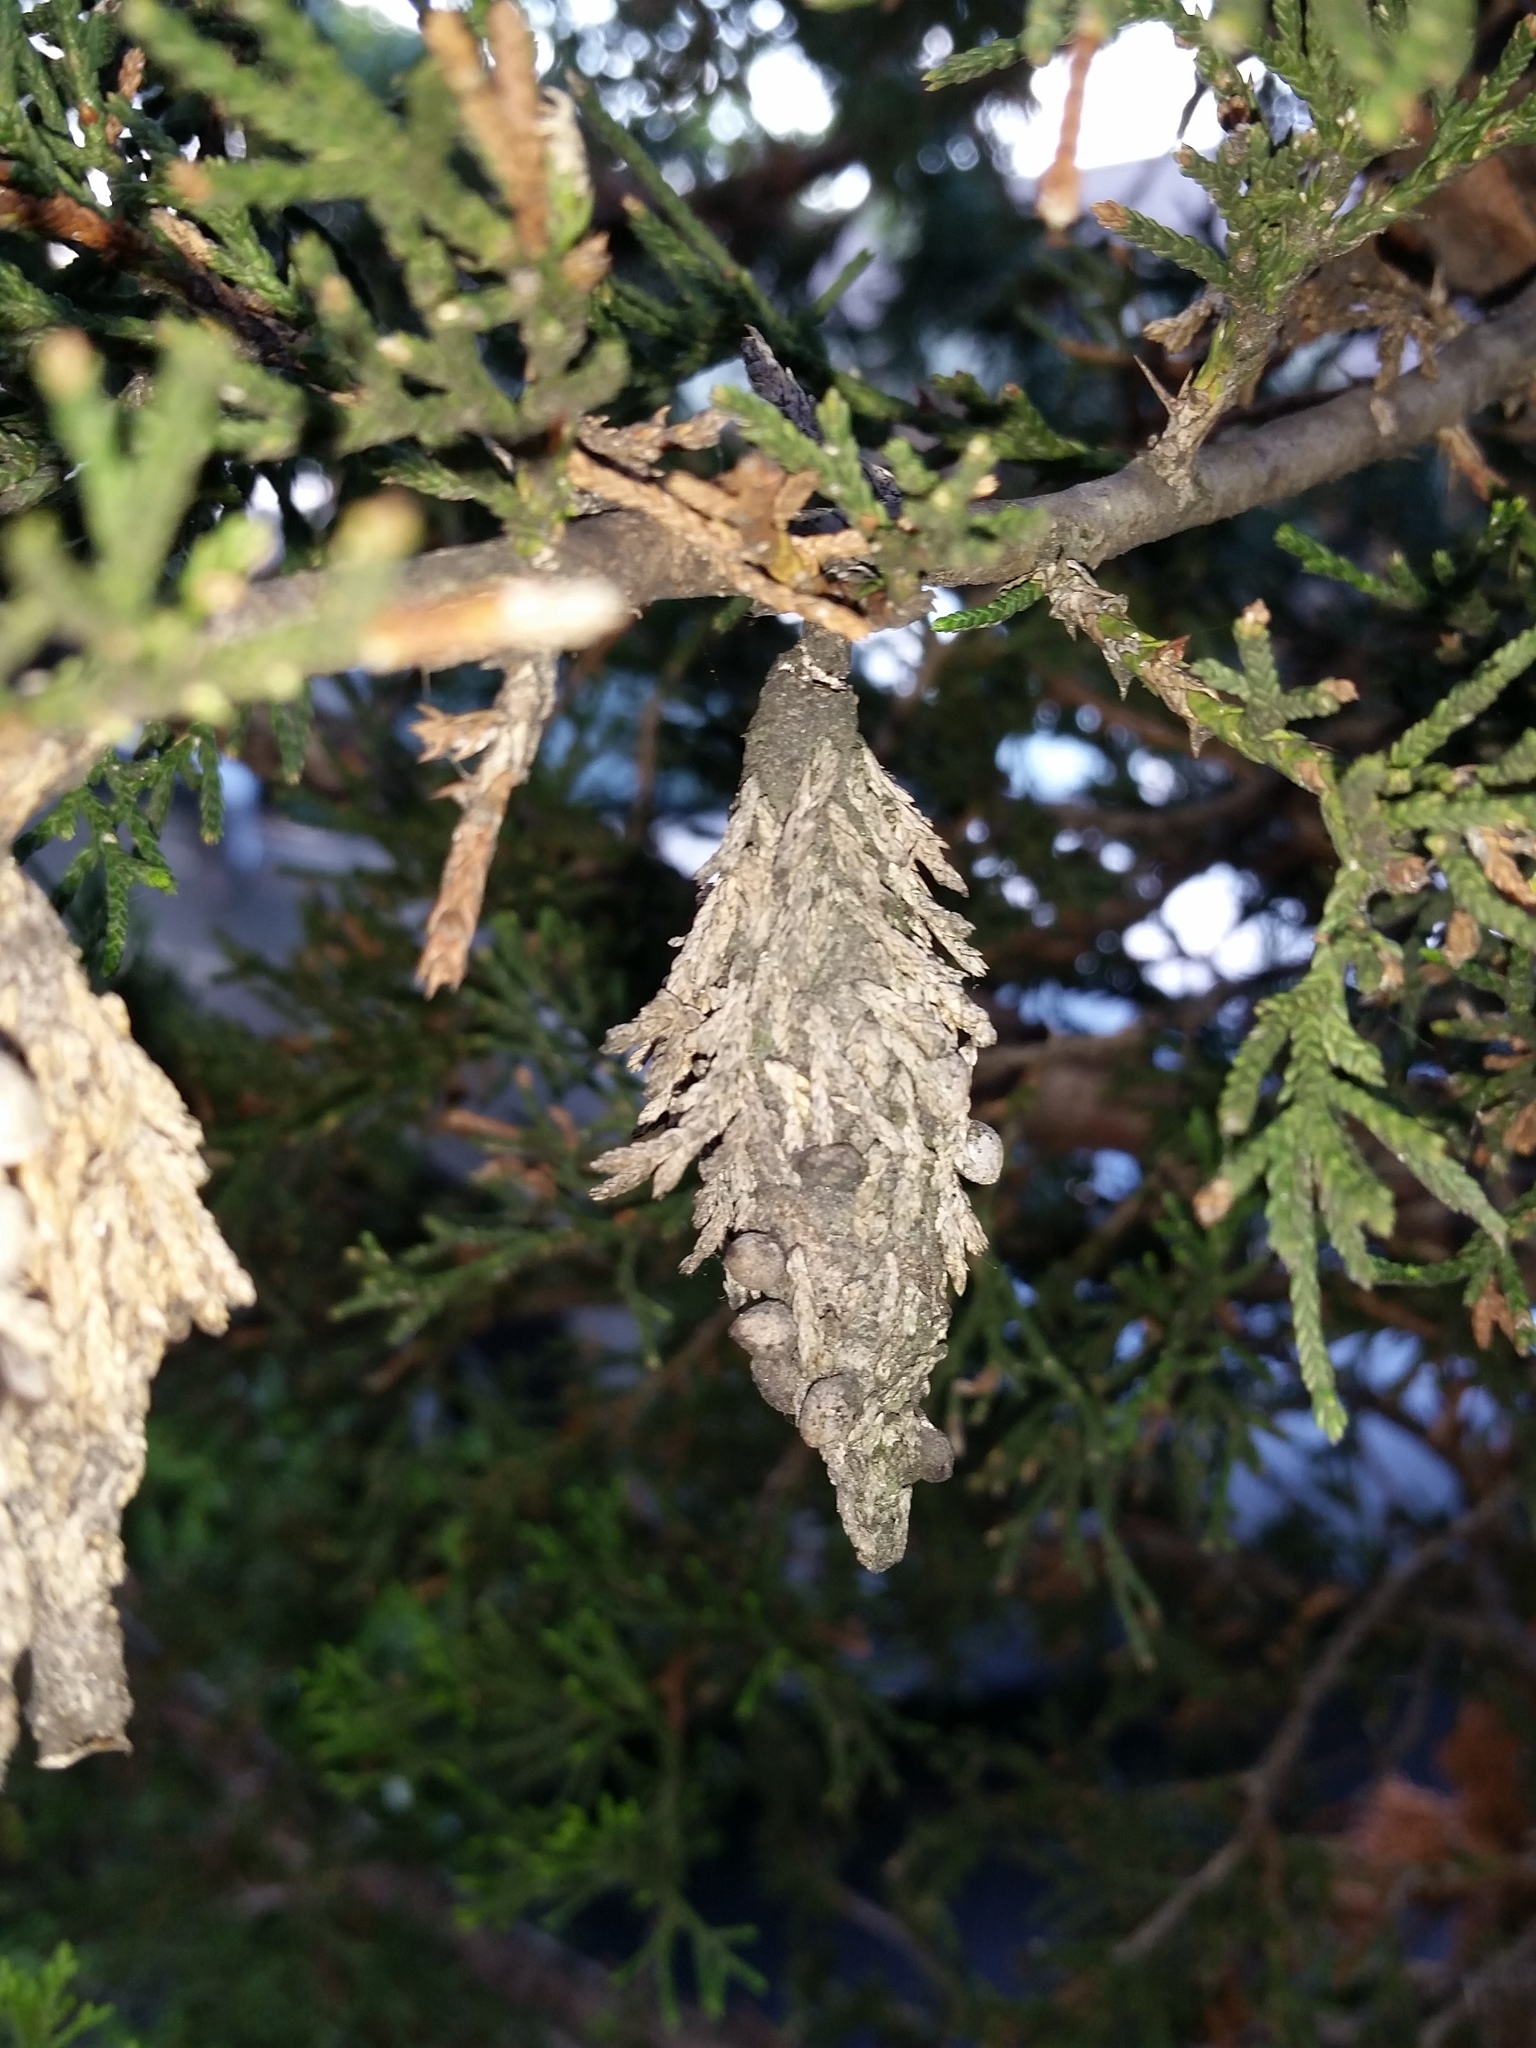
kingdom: Animalia
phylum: Arthropoda
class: Insecta
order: Lepidoptera
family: Psychidae
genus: Thyridopteryx
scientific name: Thyridopteryx ephemeraeformis
